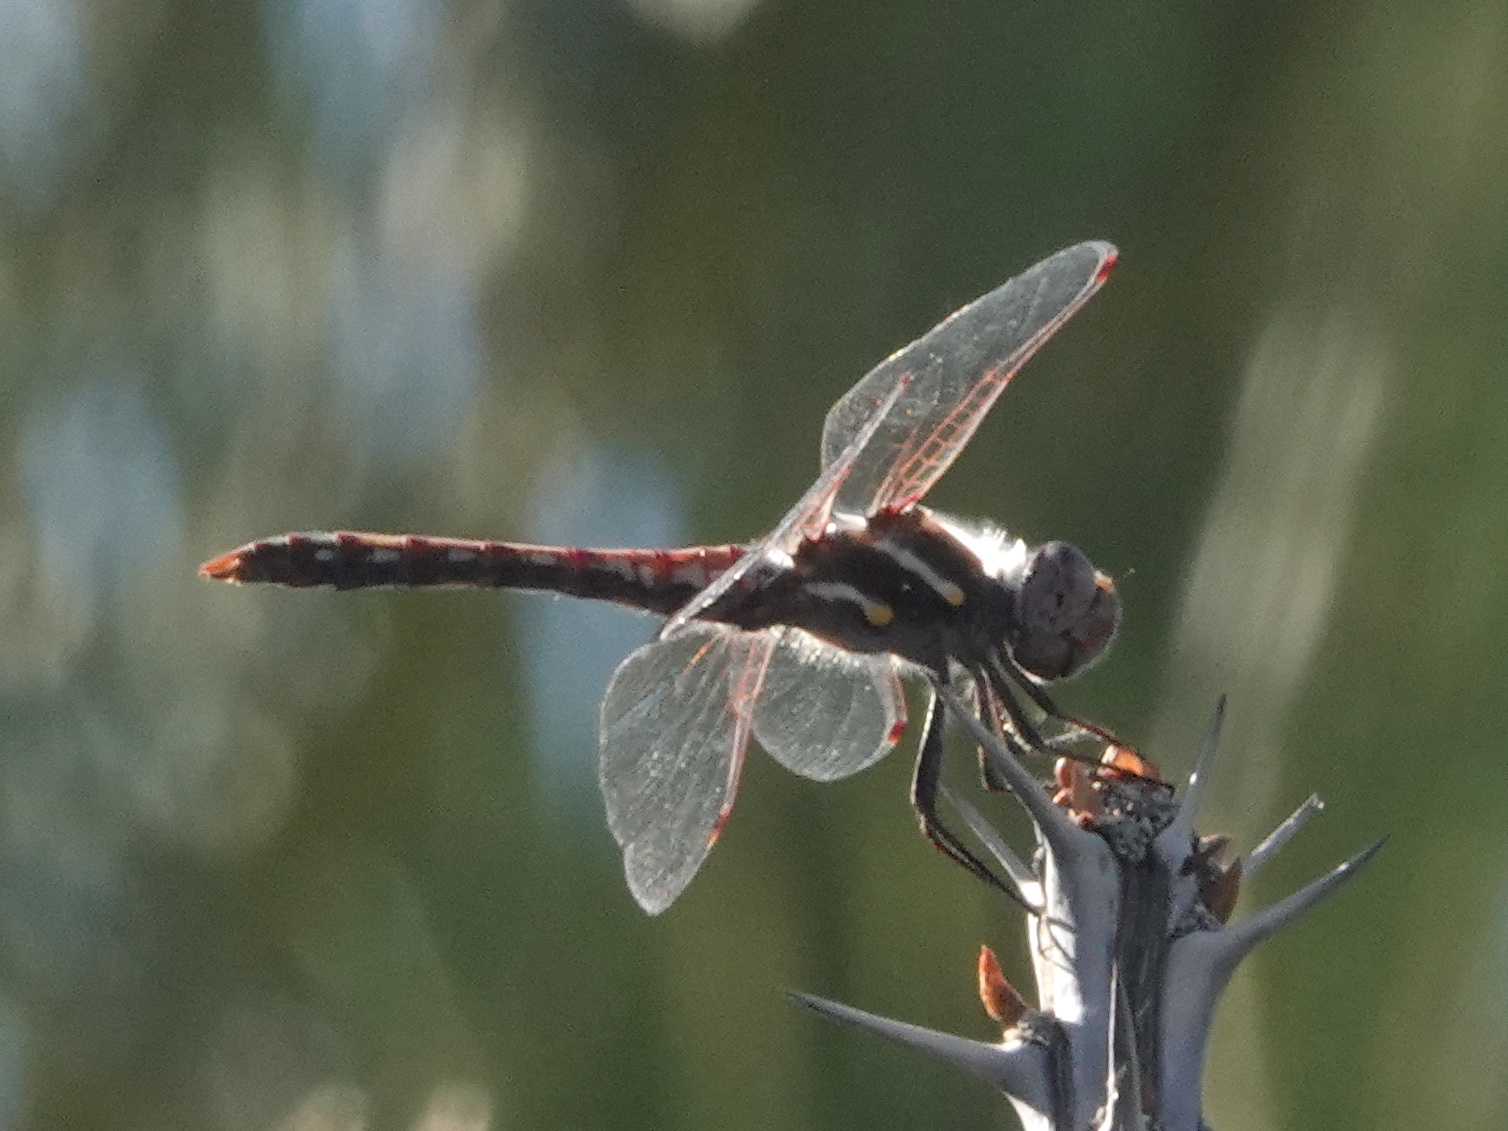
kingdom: Animalia
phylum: Arthropoda
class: Insecta
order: Odonata
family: Libellulidae
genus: Sympetrum
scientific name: Sympetrum corruptum
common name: Variegated meadowhawk
